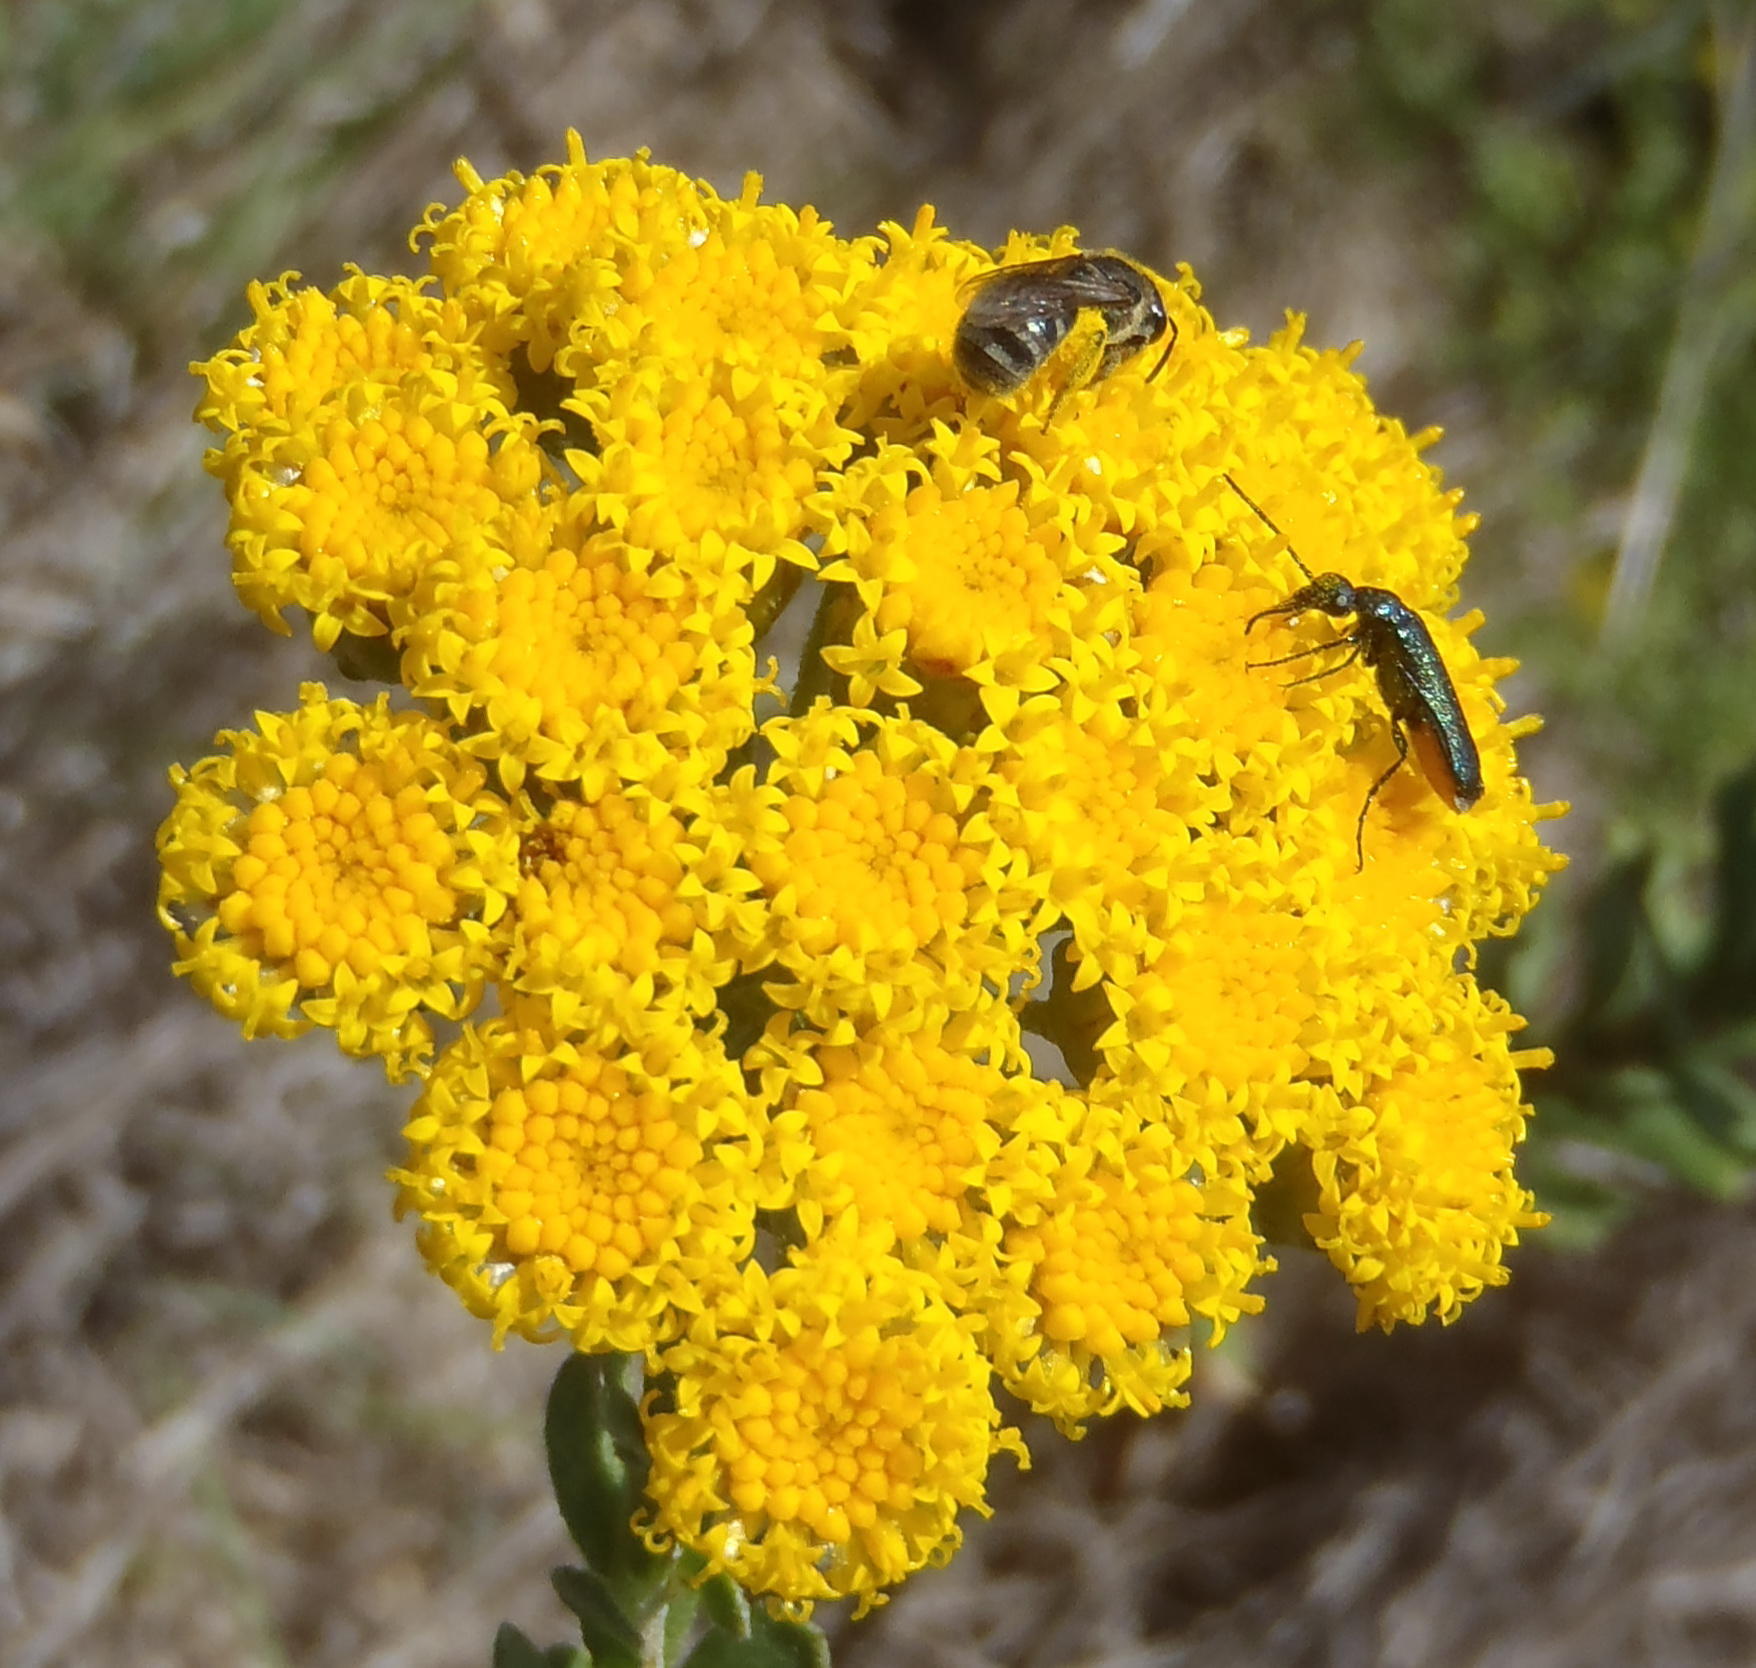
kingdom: Plantae
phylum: Tracheophyta
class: Magnoliopsida
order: Asterales
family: Asteraceae
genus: Athanasia
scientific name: Athanasia trifurcata
